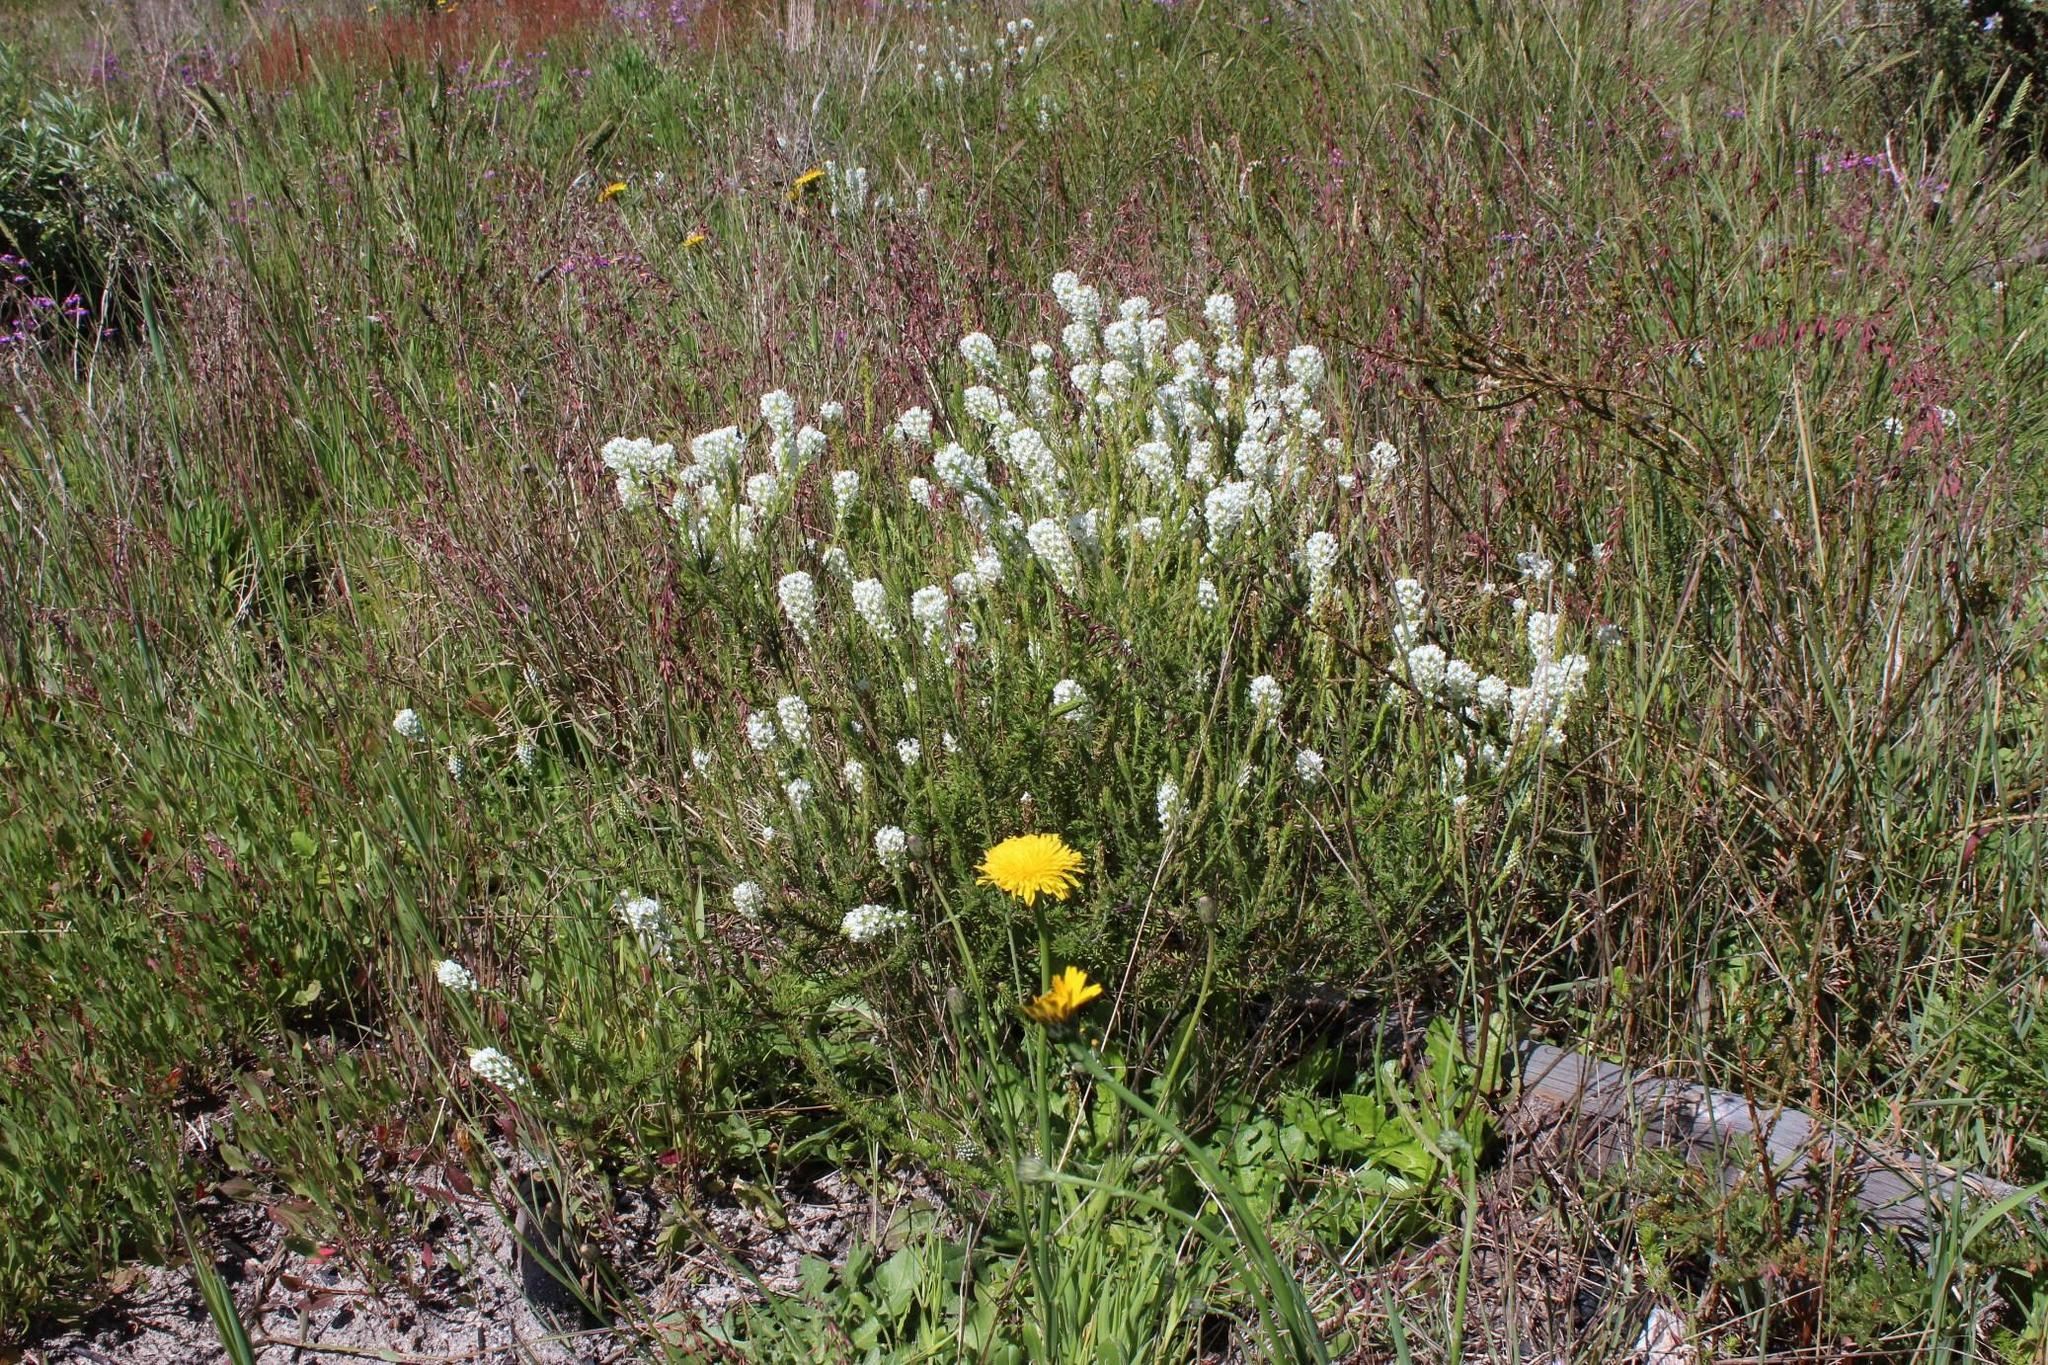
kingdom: Plantae
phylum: Tracheophyta
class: Magnoliopsida
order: Lamiales
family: Scrophulariaceae
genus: Dischisma
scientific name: Dischisma ciliatum
